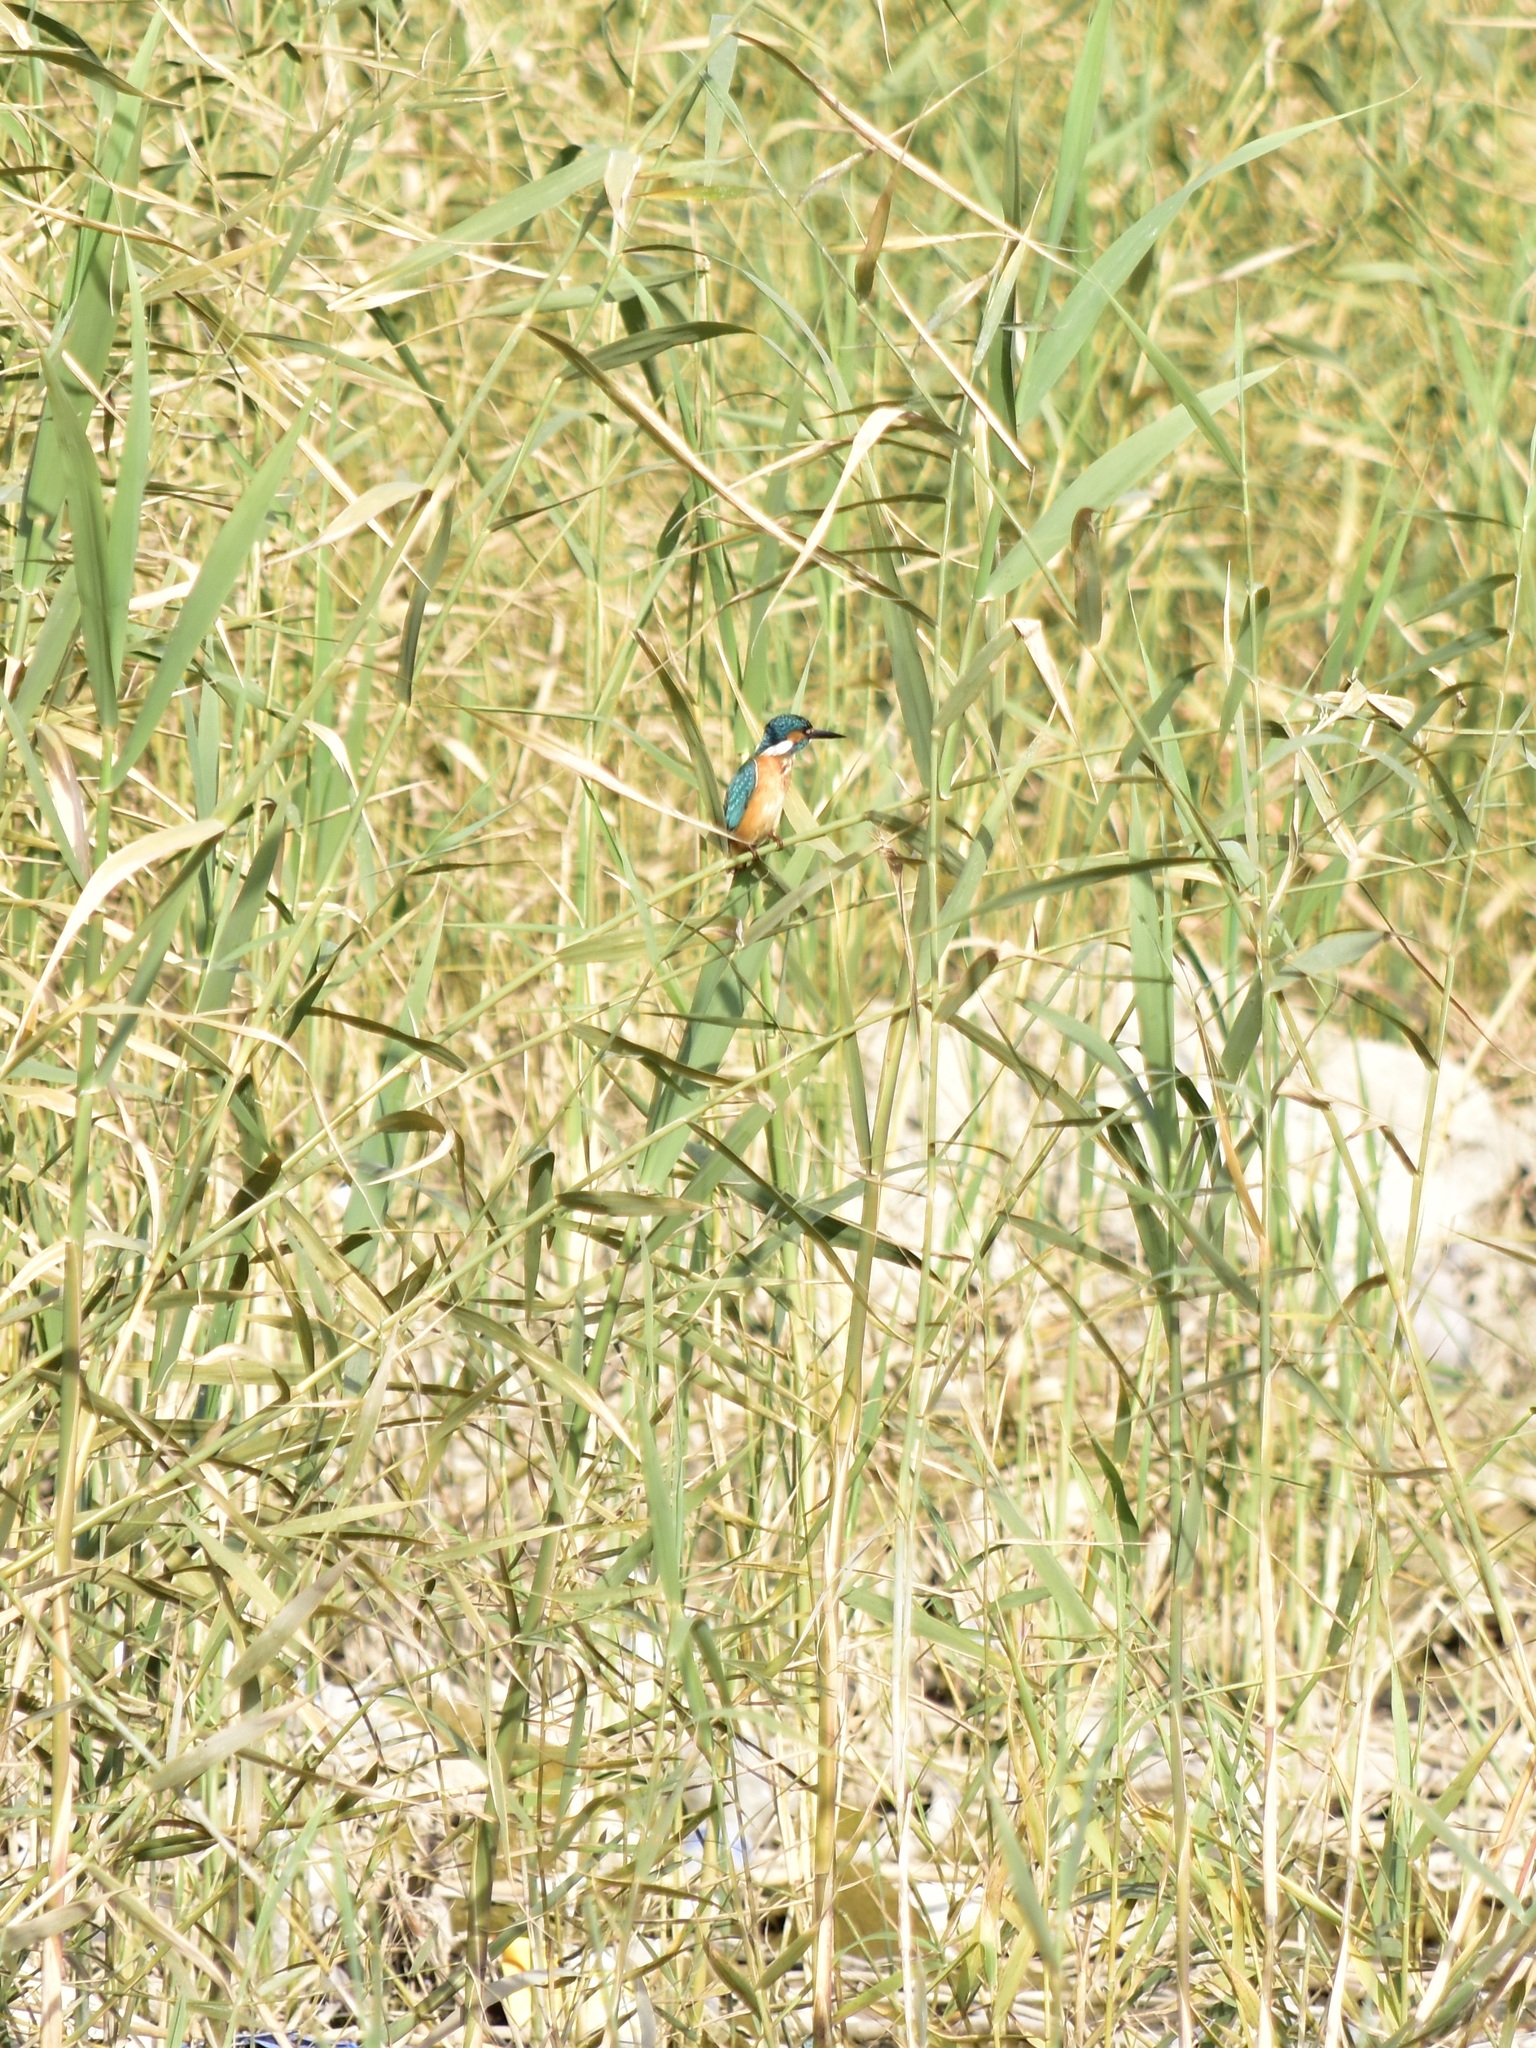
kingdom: Animalia
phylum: Chordata
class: Aves
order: Coraciiformes
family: Alcedinidae
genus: Alcedo
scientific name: Alcedo atthis
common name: Common kingfisher
